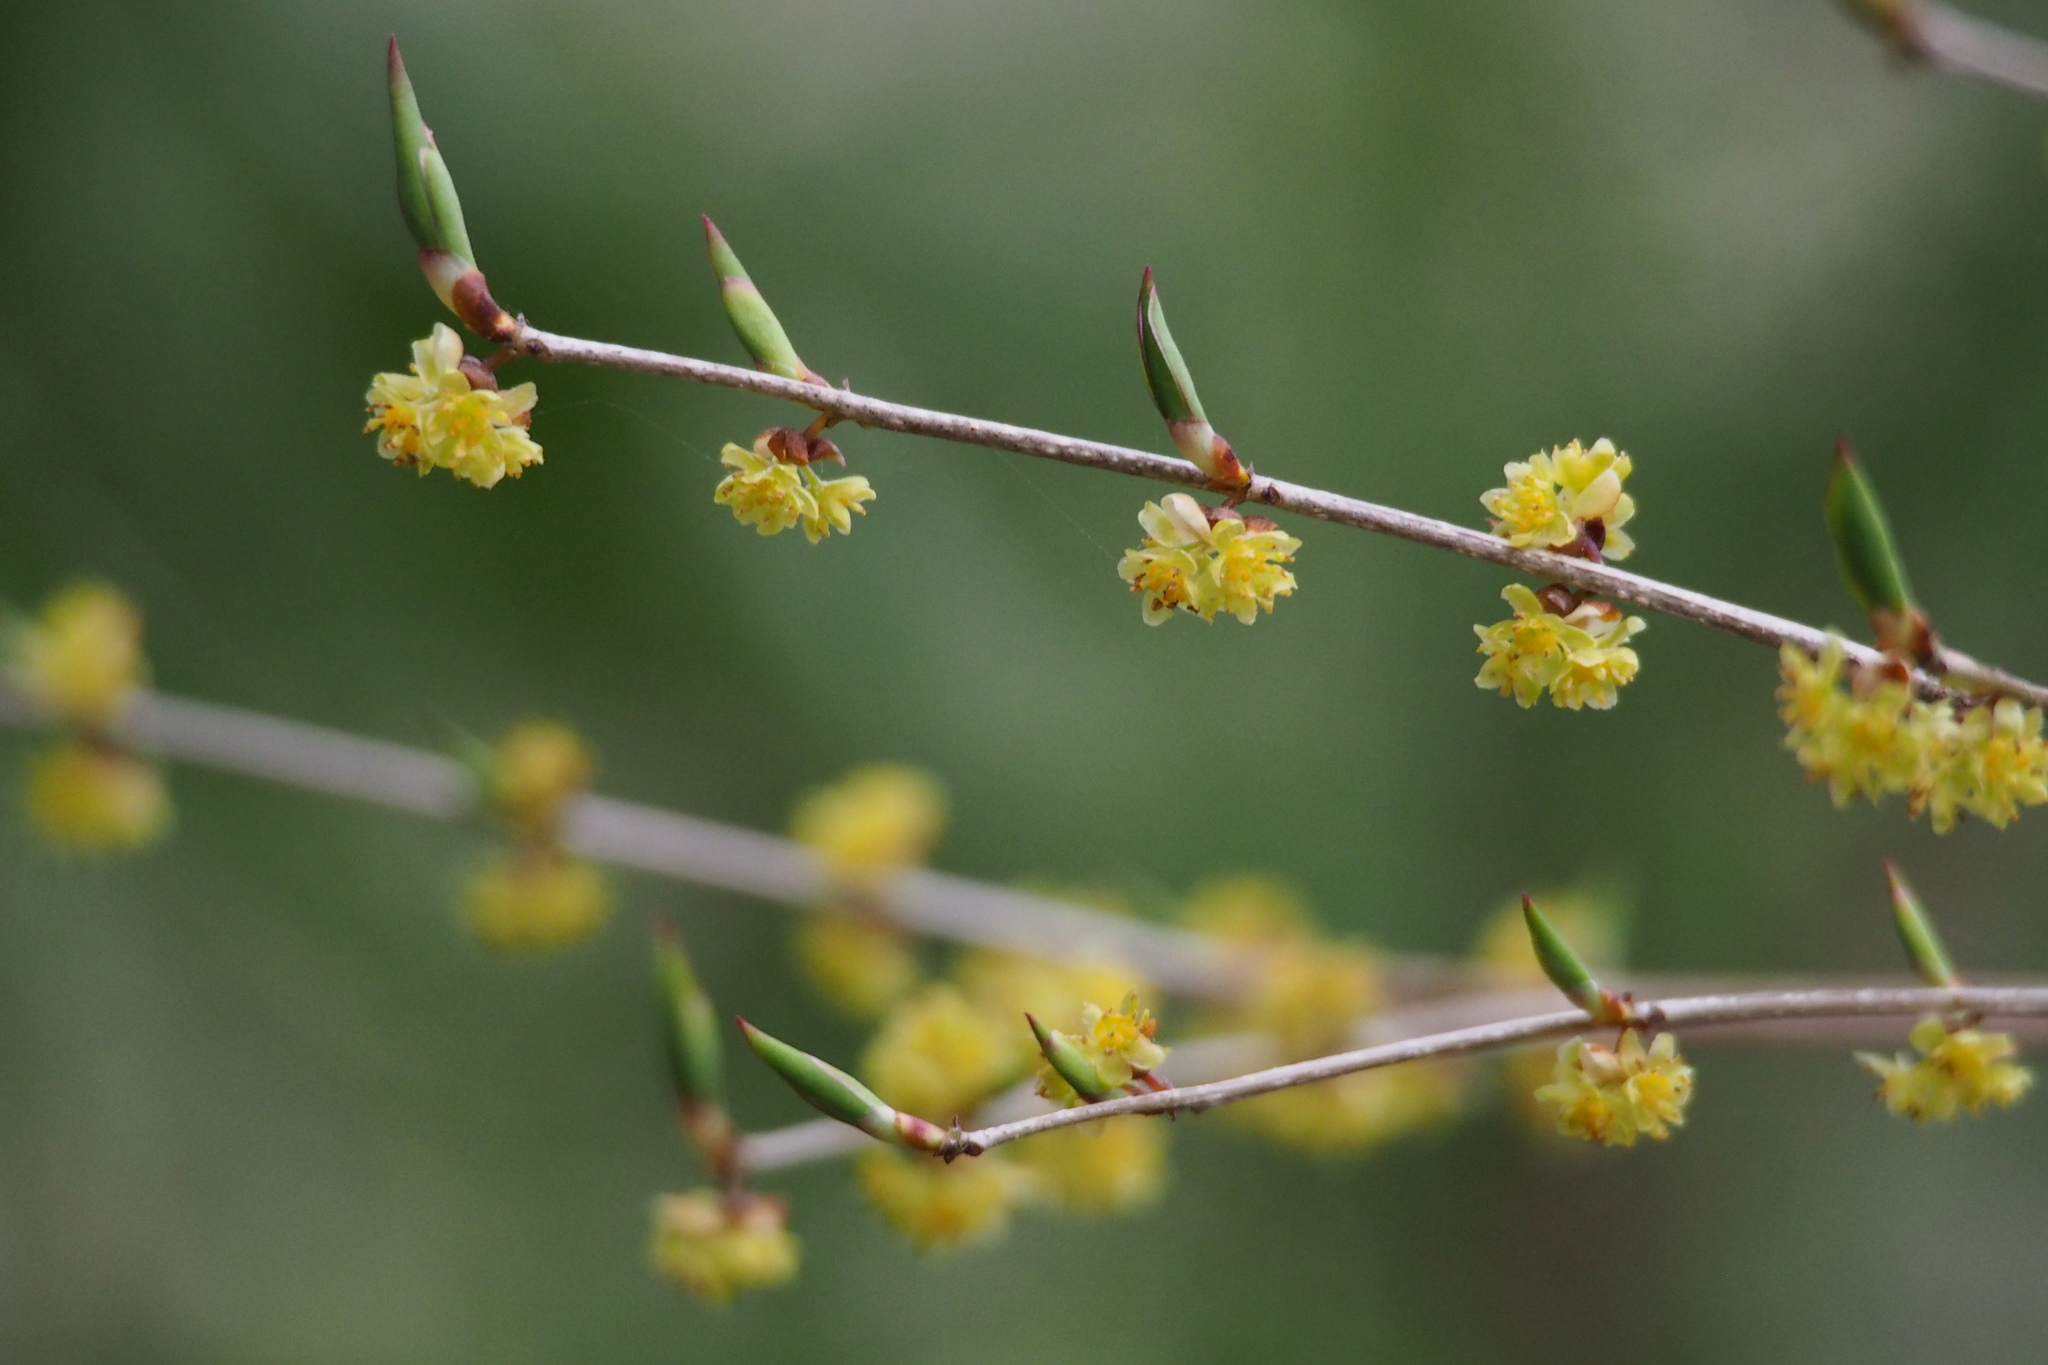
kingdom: Plantae
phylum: Tracheophyta
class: Magnoliopsida
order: Laurales
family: Lauraceae
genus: Lindera
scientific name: Lindera praecox
